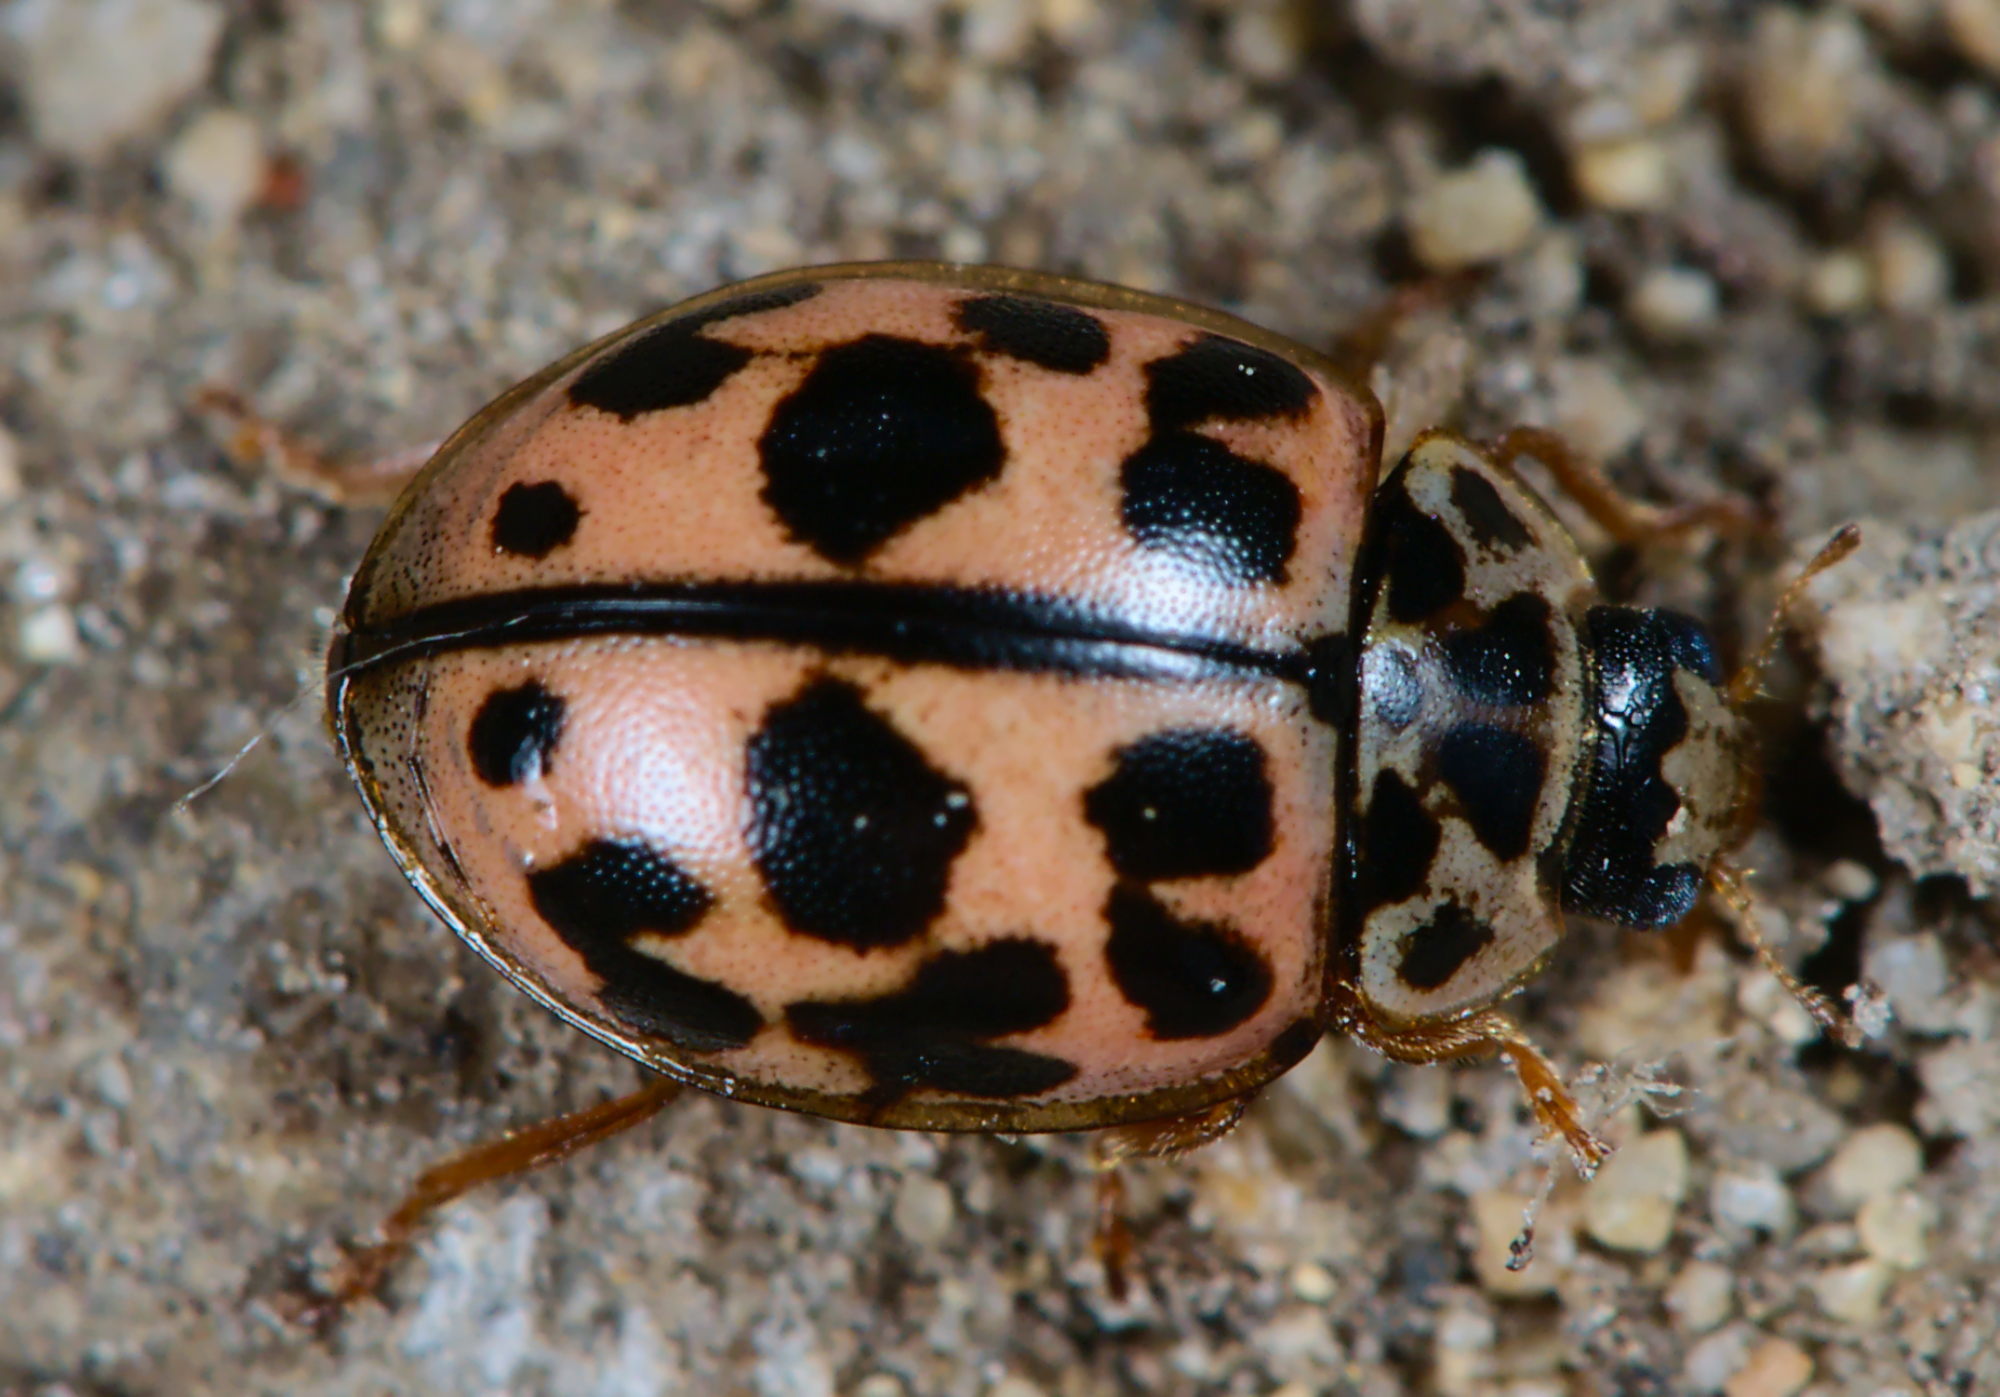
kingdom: Animalia
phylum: Arthropoda
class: Insecta
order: Coleoptera
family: Coccinellidae
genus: Oenopia
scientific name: Oenopia conglobata
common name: Ladybird beetle
